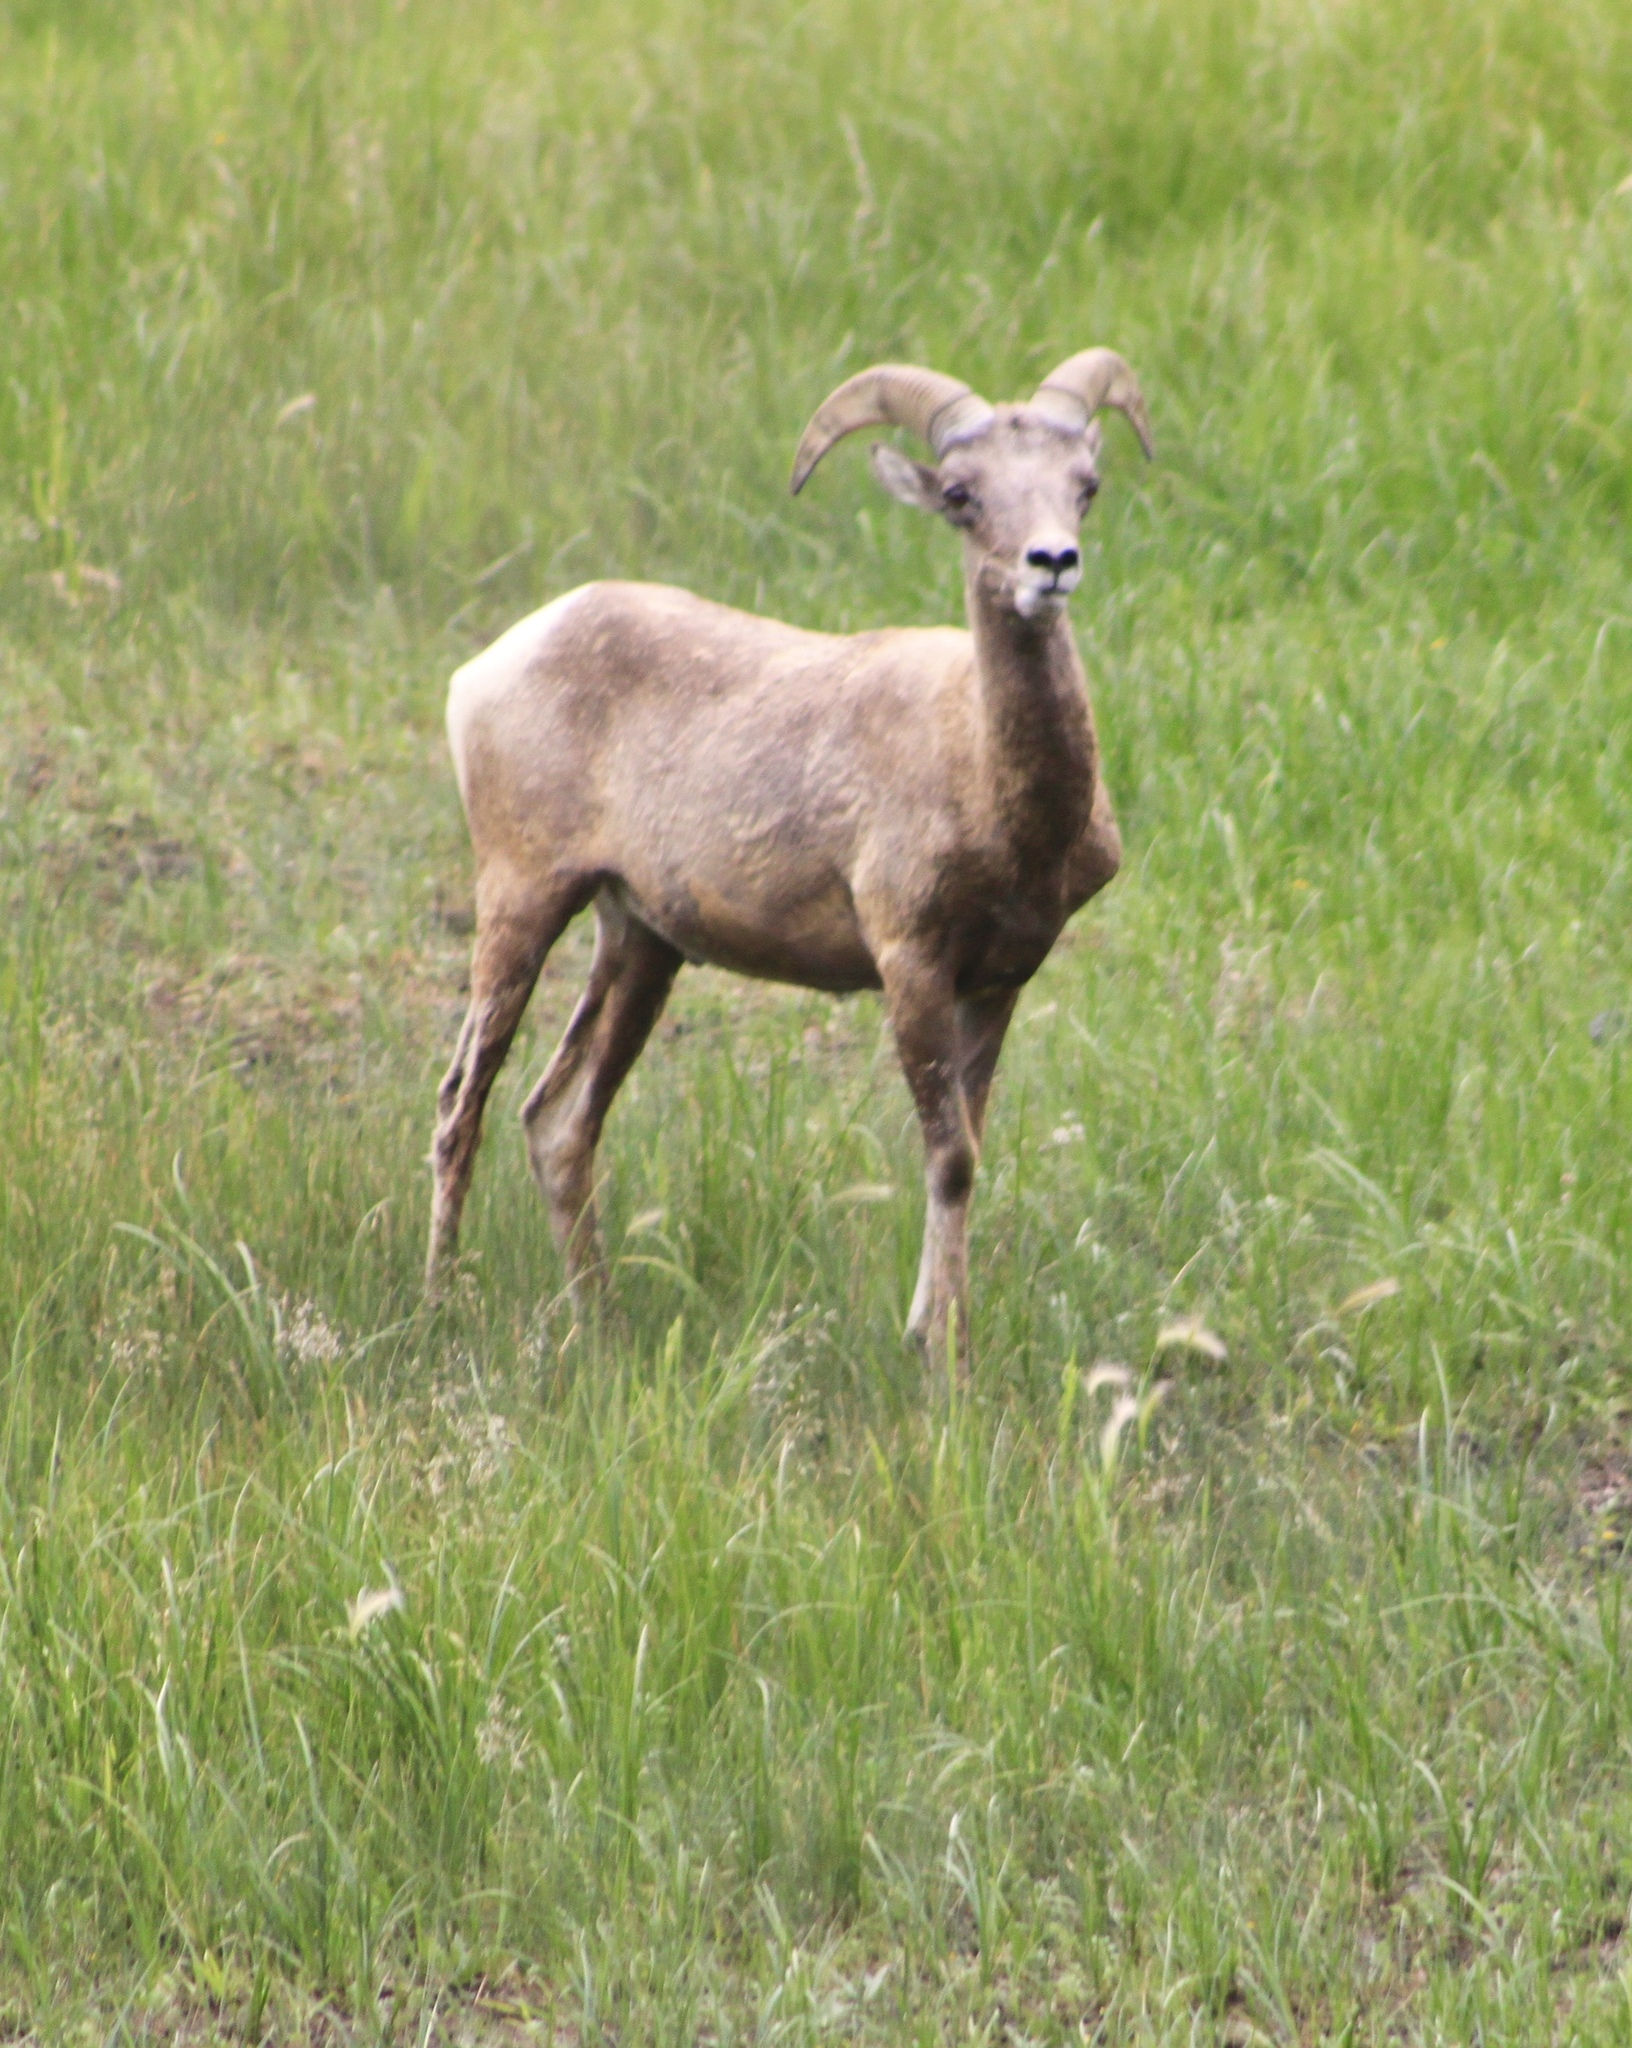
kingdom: Animalia
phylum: Chordata
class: Mammalia
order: Artiodactyla
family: Bovidae
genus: Ovis
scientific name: Ovis canadensis
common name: Bighorn sheep
